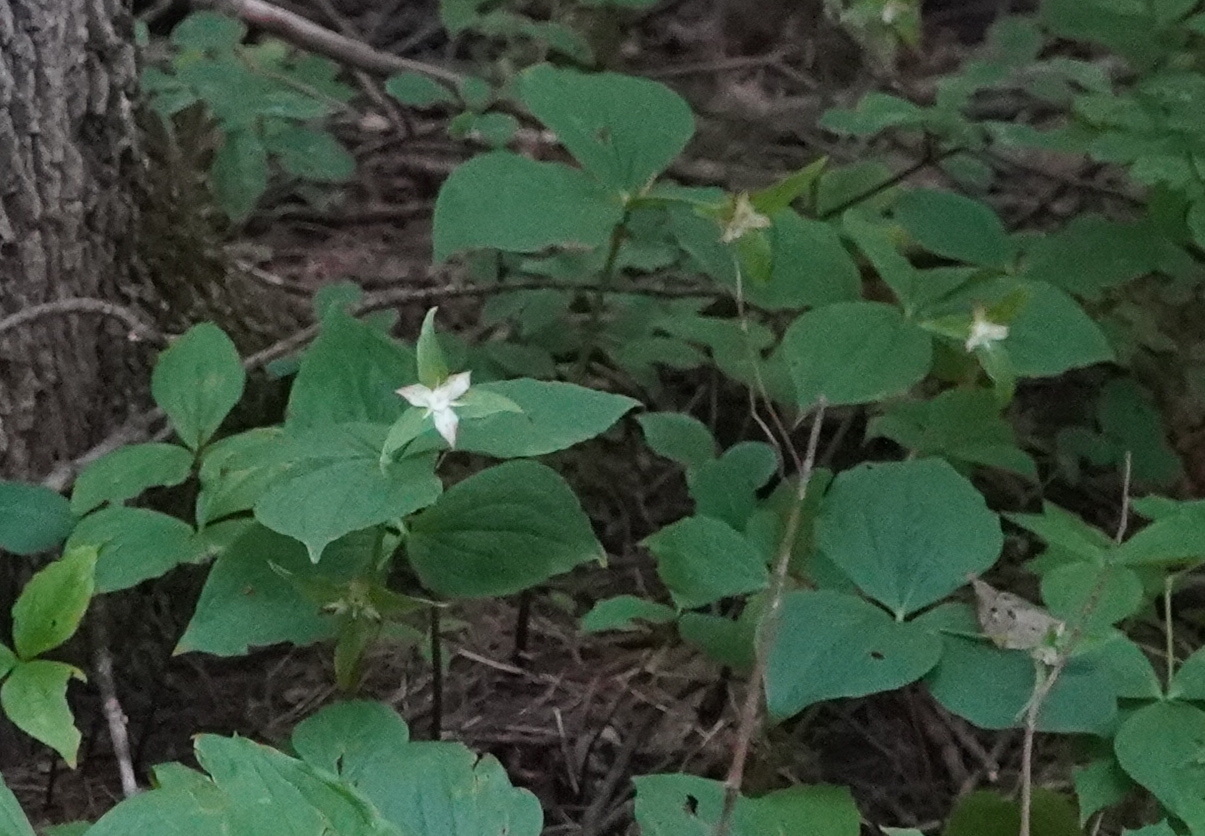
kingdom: Plantae
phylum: Tracheophyta
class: Liliopsida
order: Liliales
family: Melanthiaceae
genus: Trillium
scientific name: Trillium grandiflorum
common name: Great white trillium
